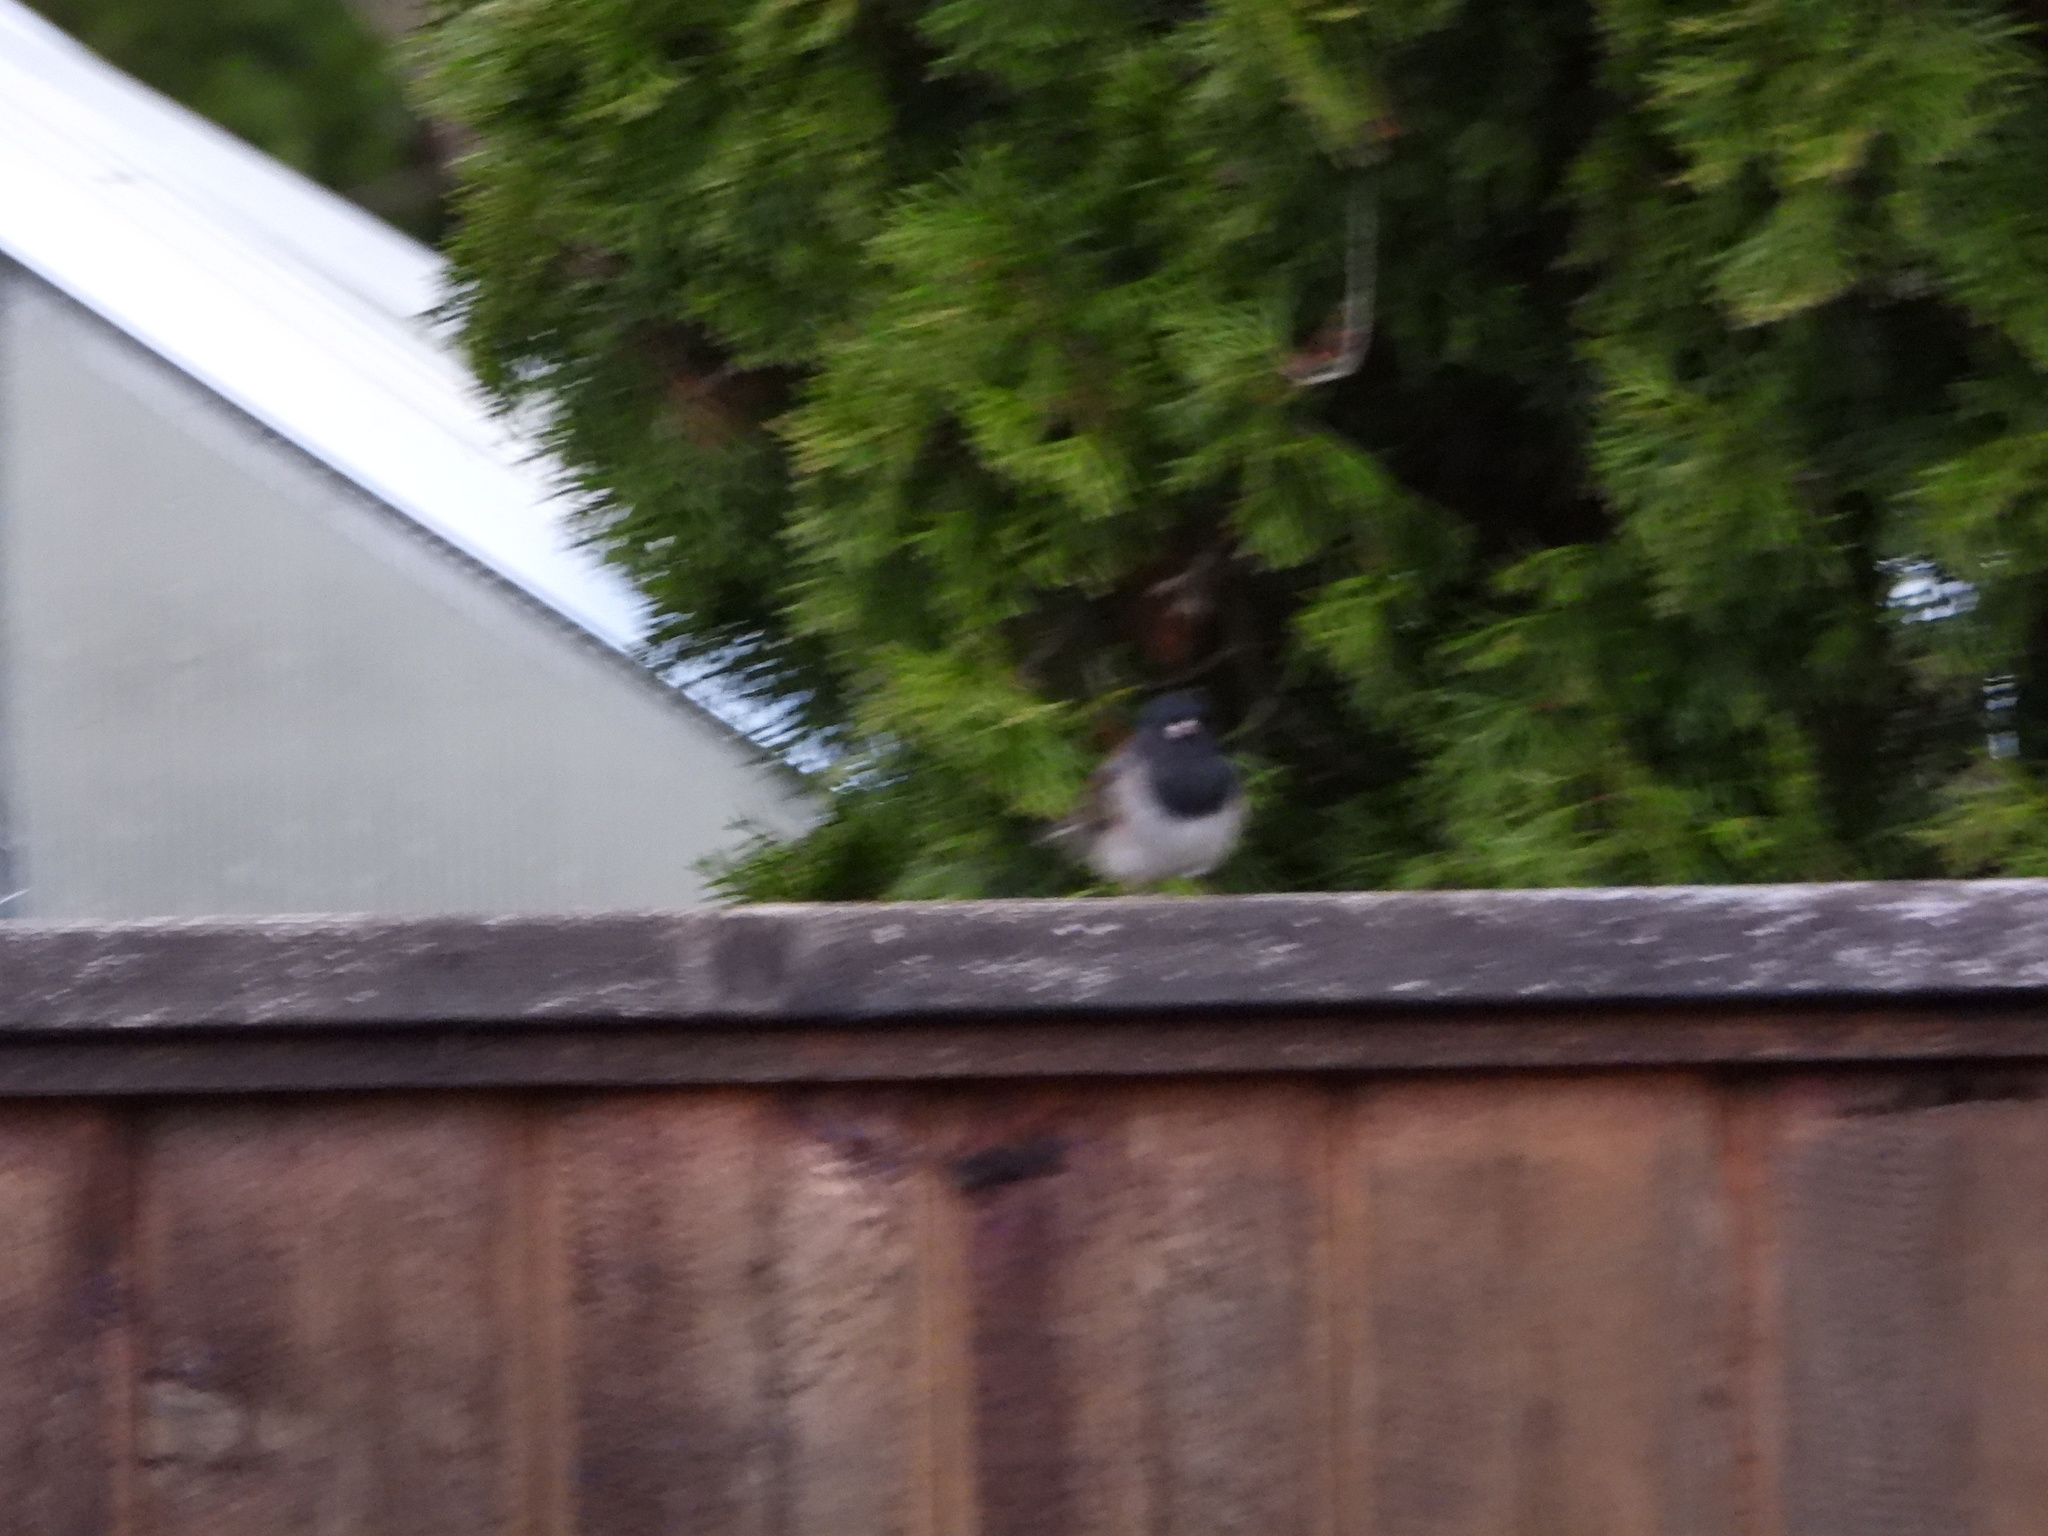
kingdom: Animalia
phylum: Chordata
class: Aves
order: Passeriformes
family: Passerellidae
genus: Junco
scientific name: Junco hyemalis
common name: Dark-eyed junco
